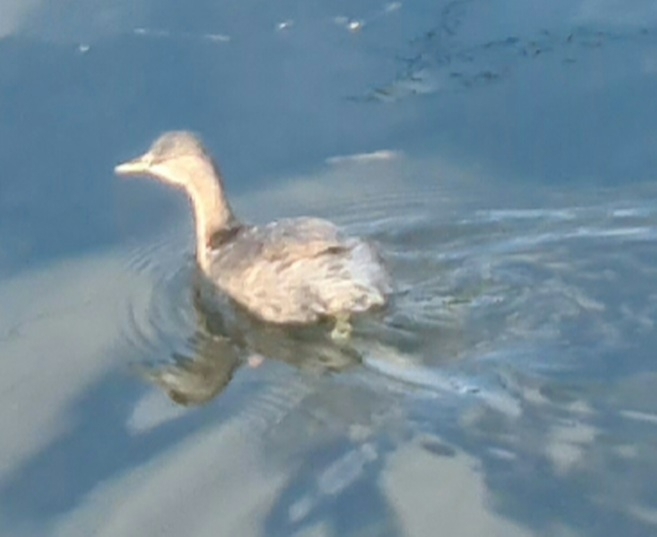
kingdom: Animalia
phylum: Chordata
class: Aves
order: Podicipediformes
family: Podicipedidae
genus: Poliocephalus
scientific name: Poliocephalus poliocephalus
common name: Hoary-headed grebe
